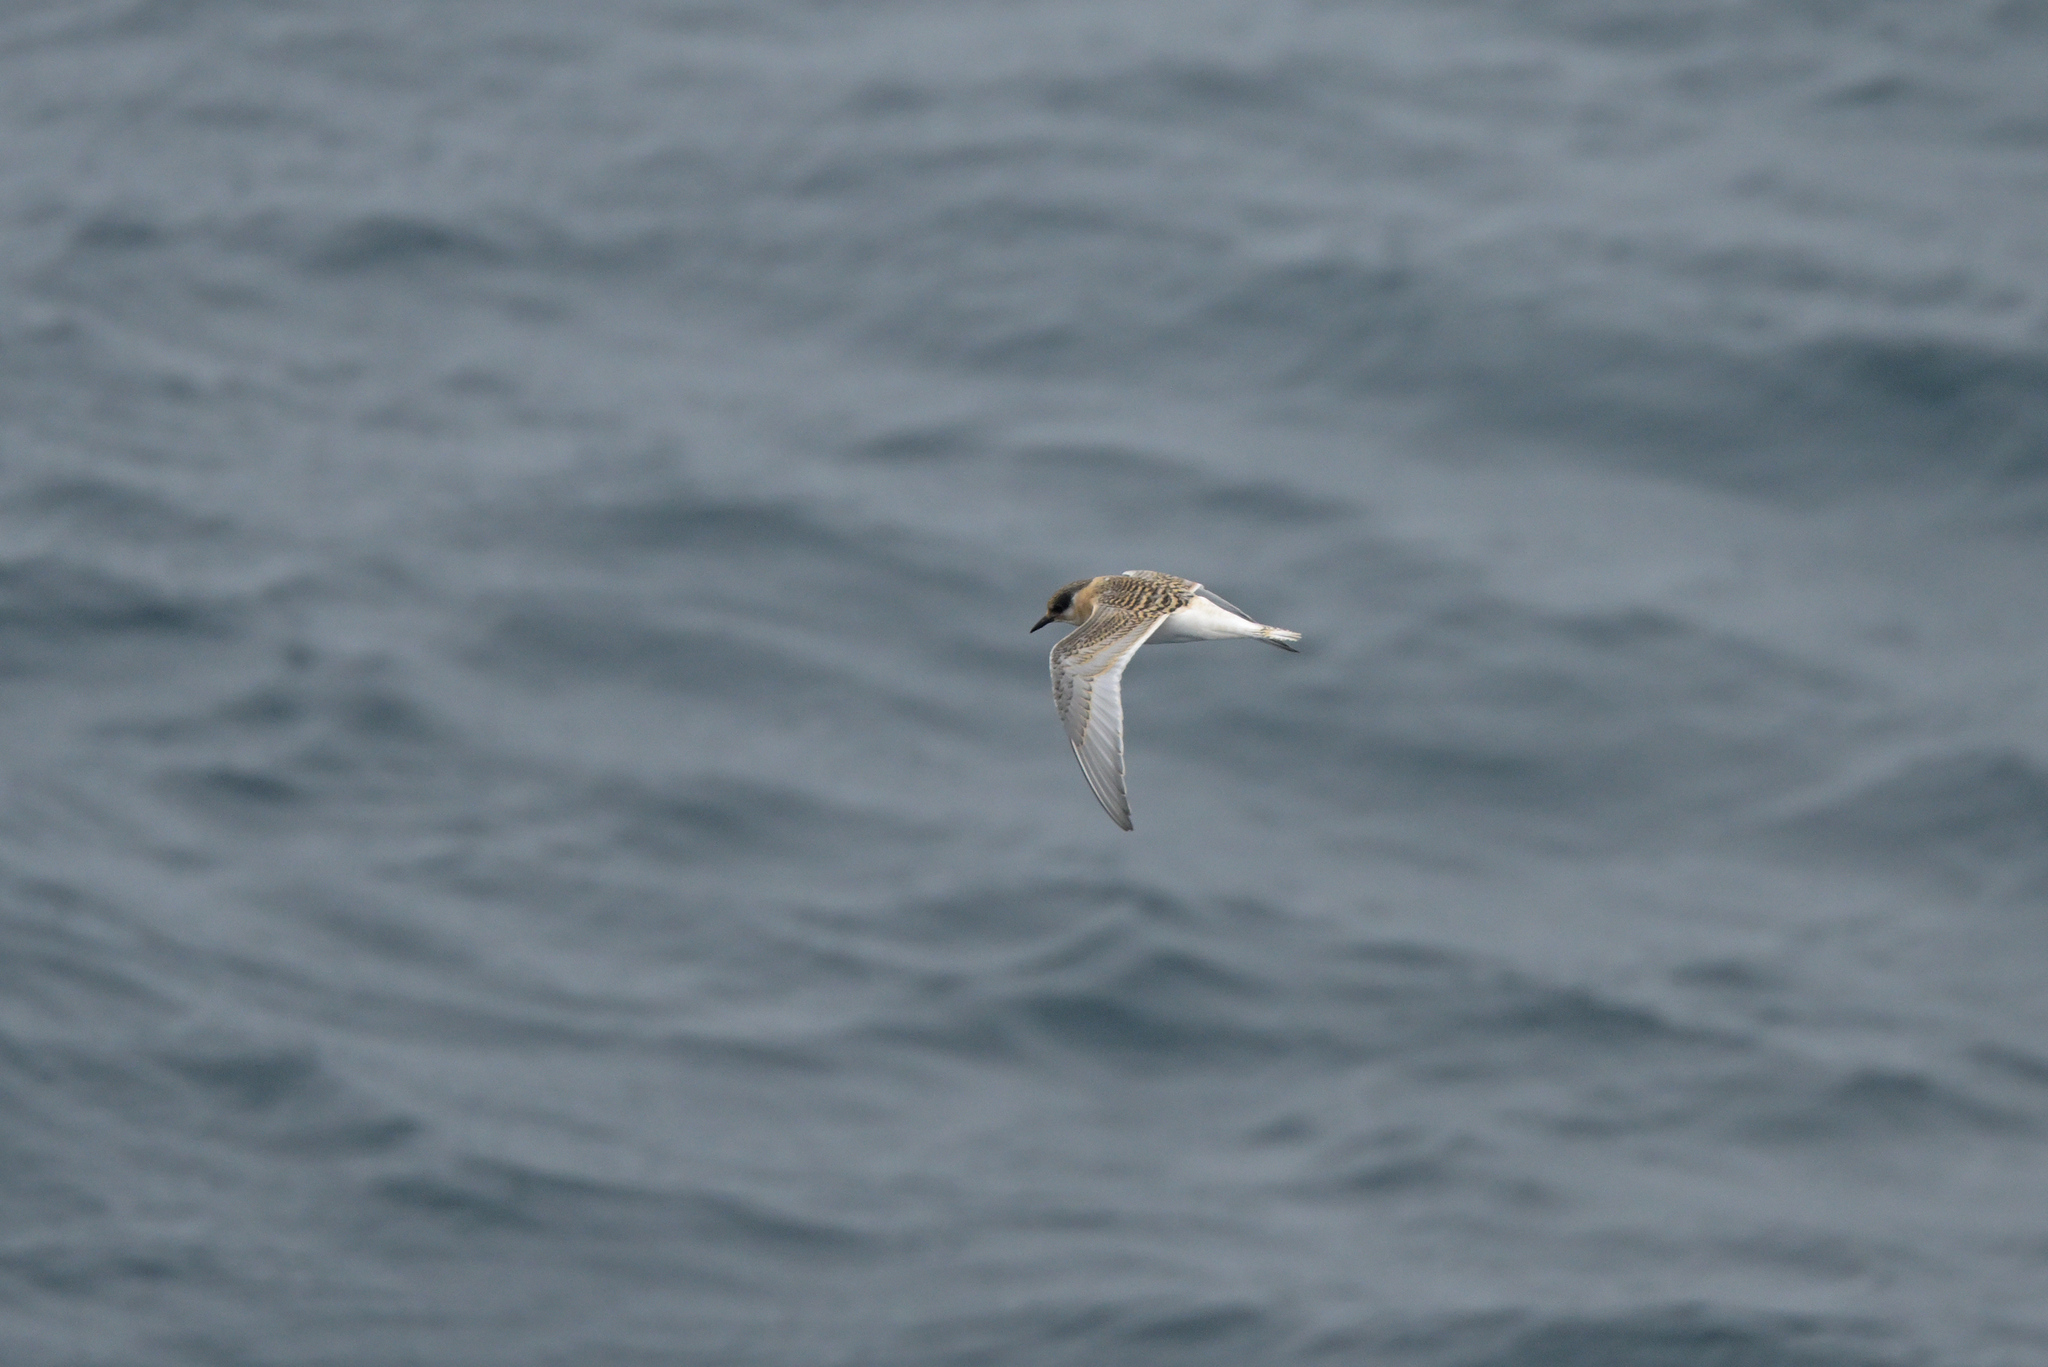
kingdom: Animalia
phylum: Chordata
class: Aves
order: Charadriiformes
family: Laridae
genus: Sterna
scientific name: Sterna vittata
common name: Antarctic tern
